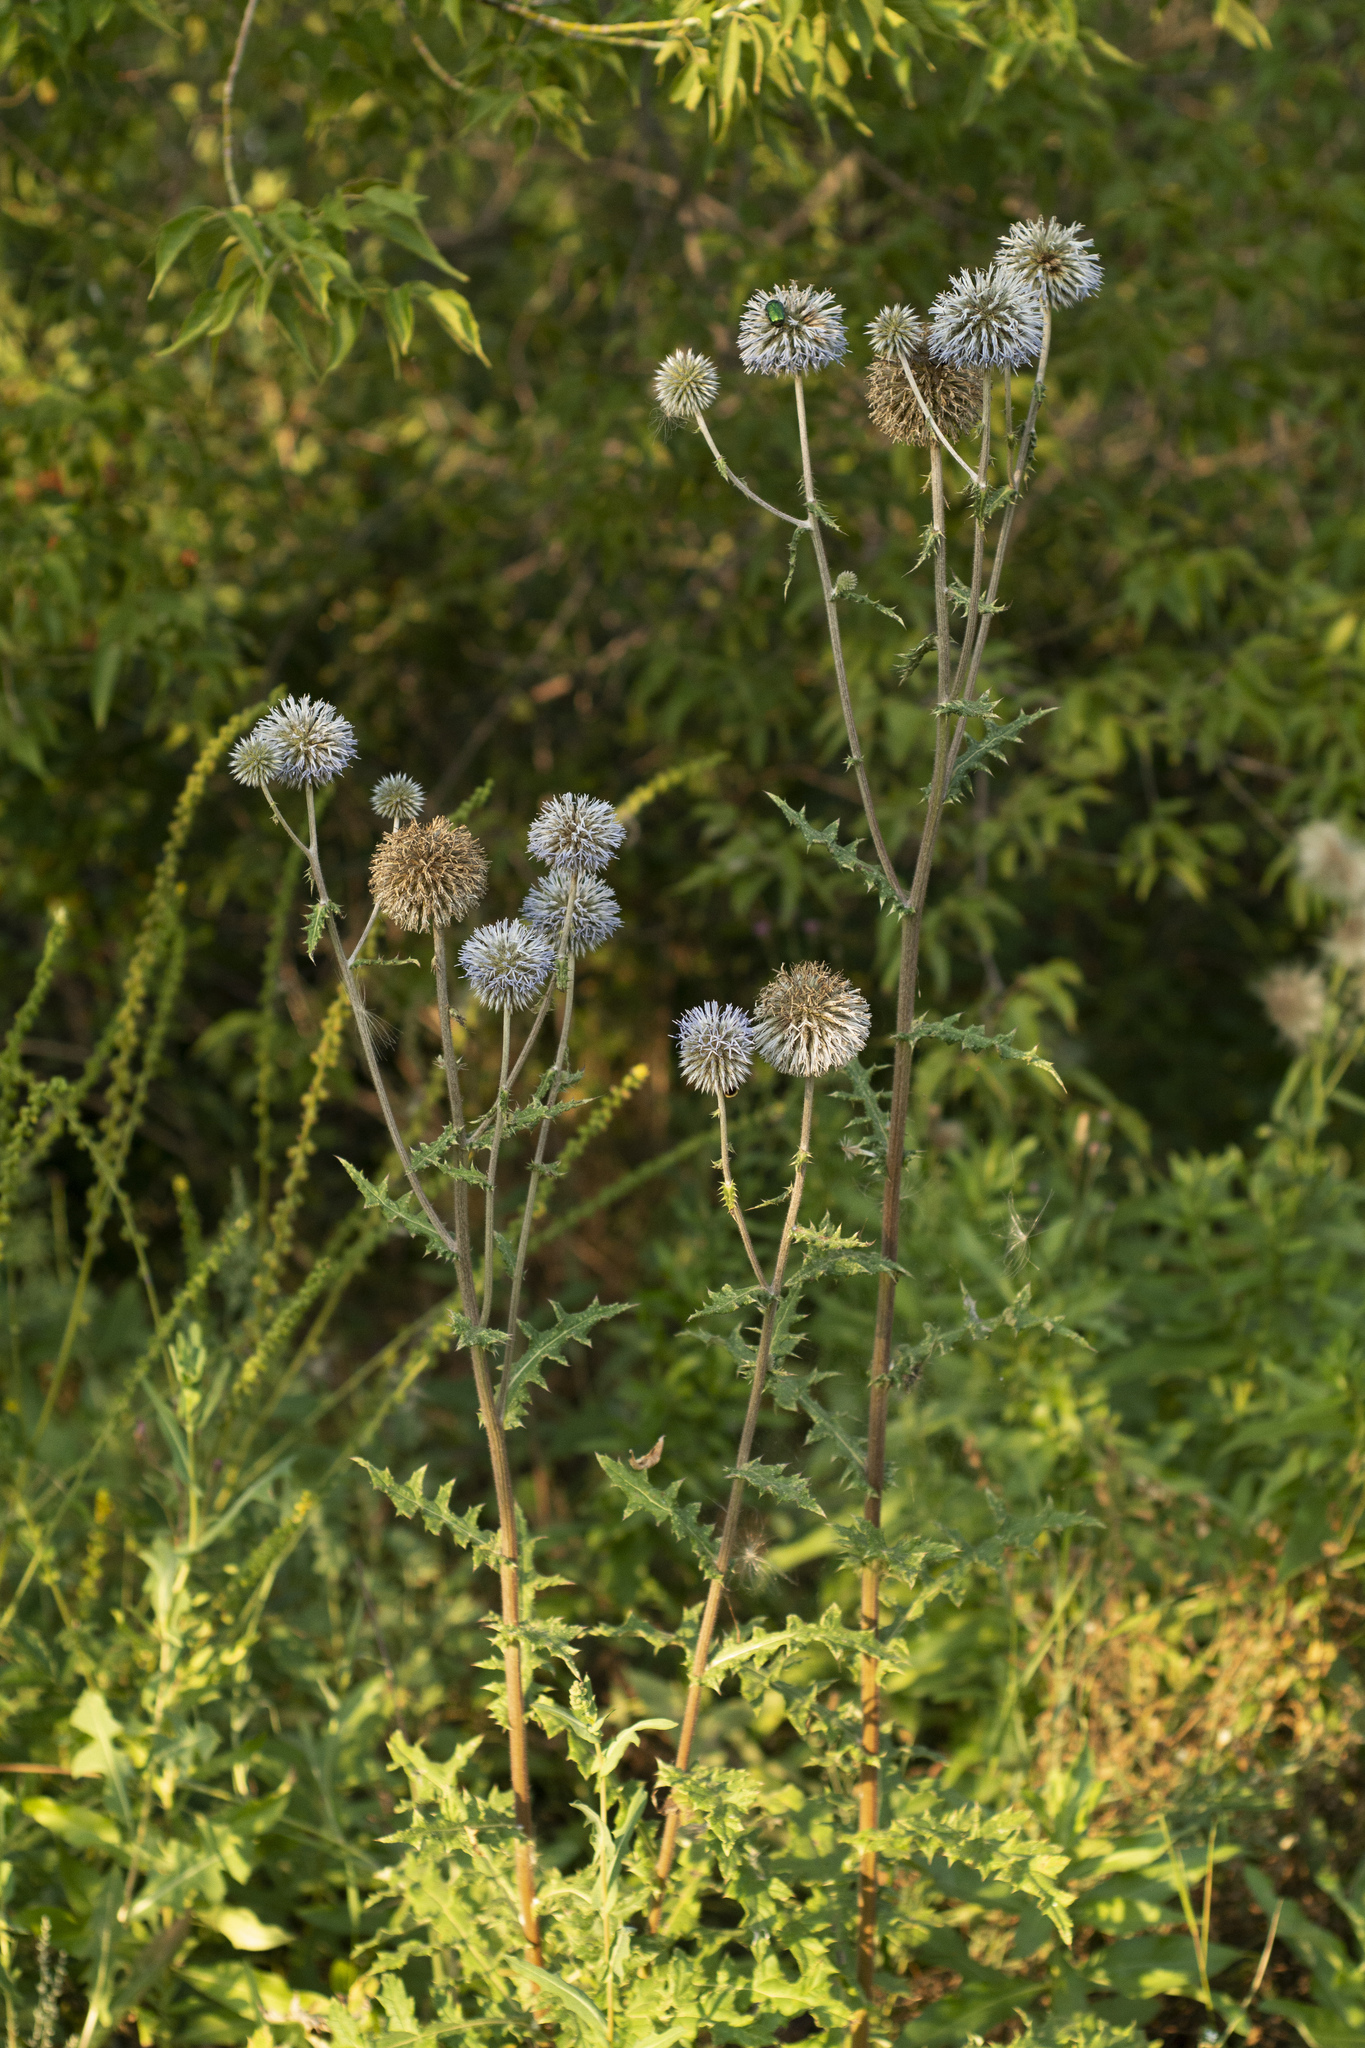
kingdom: Plantae
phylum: Tracheophyta
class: Magnoliopsida
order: Asterales
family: Asteraceae
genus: Echinops
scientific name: Echinops sphaerocephalus
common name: Glandular globe-thistle
